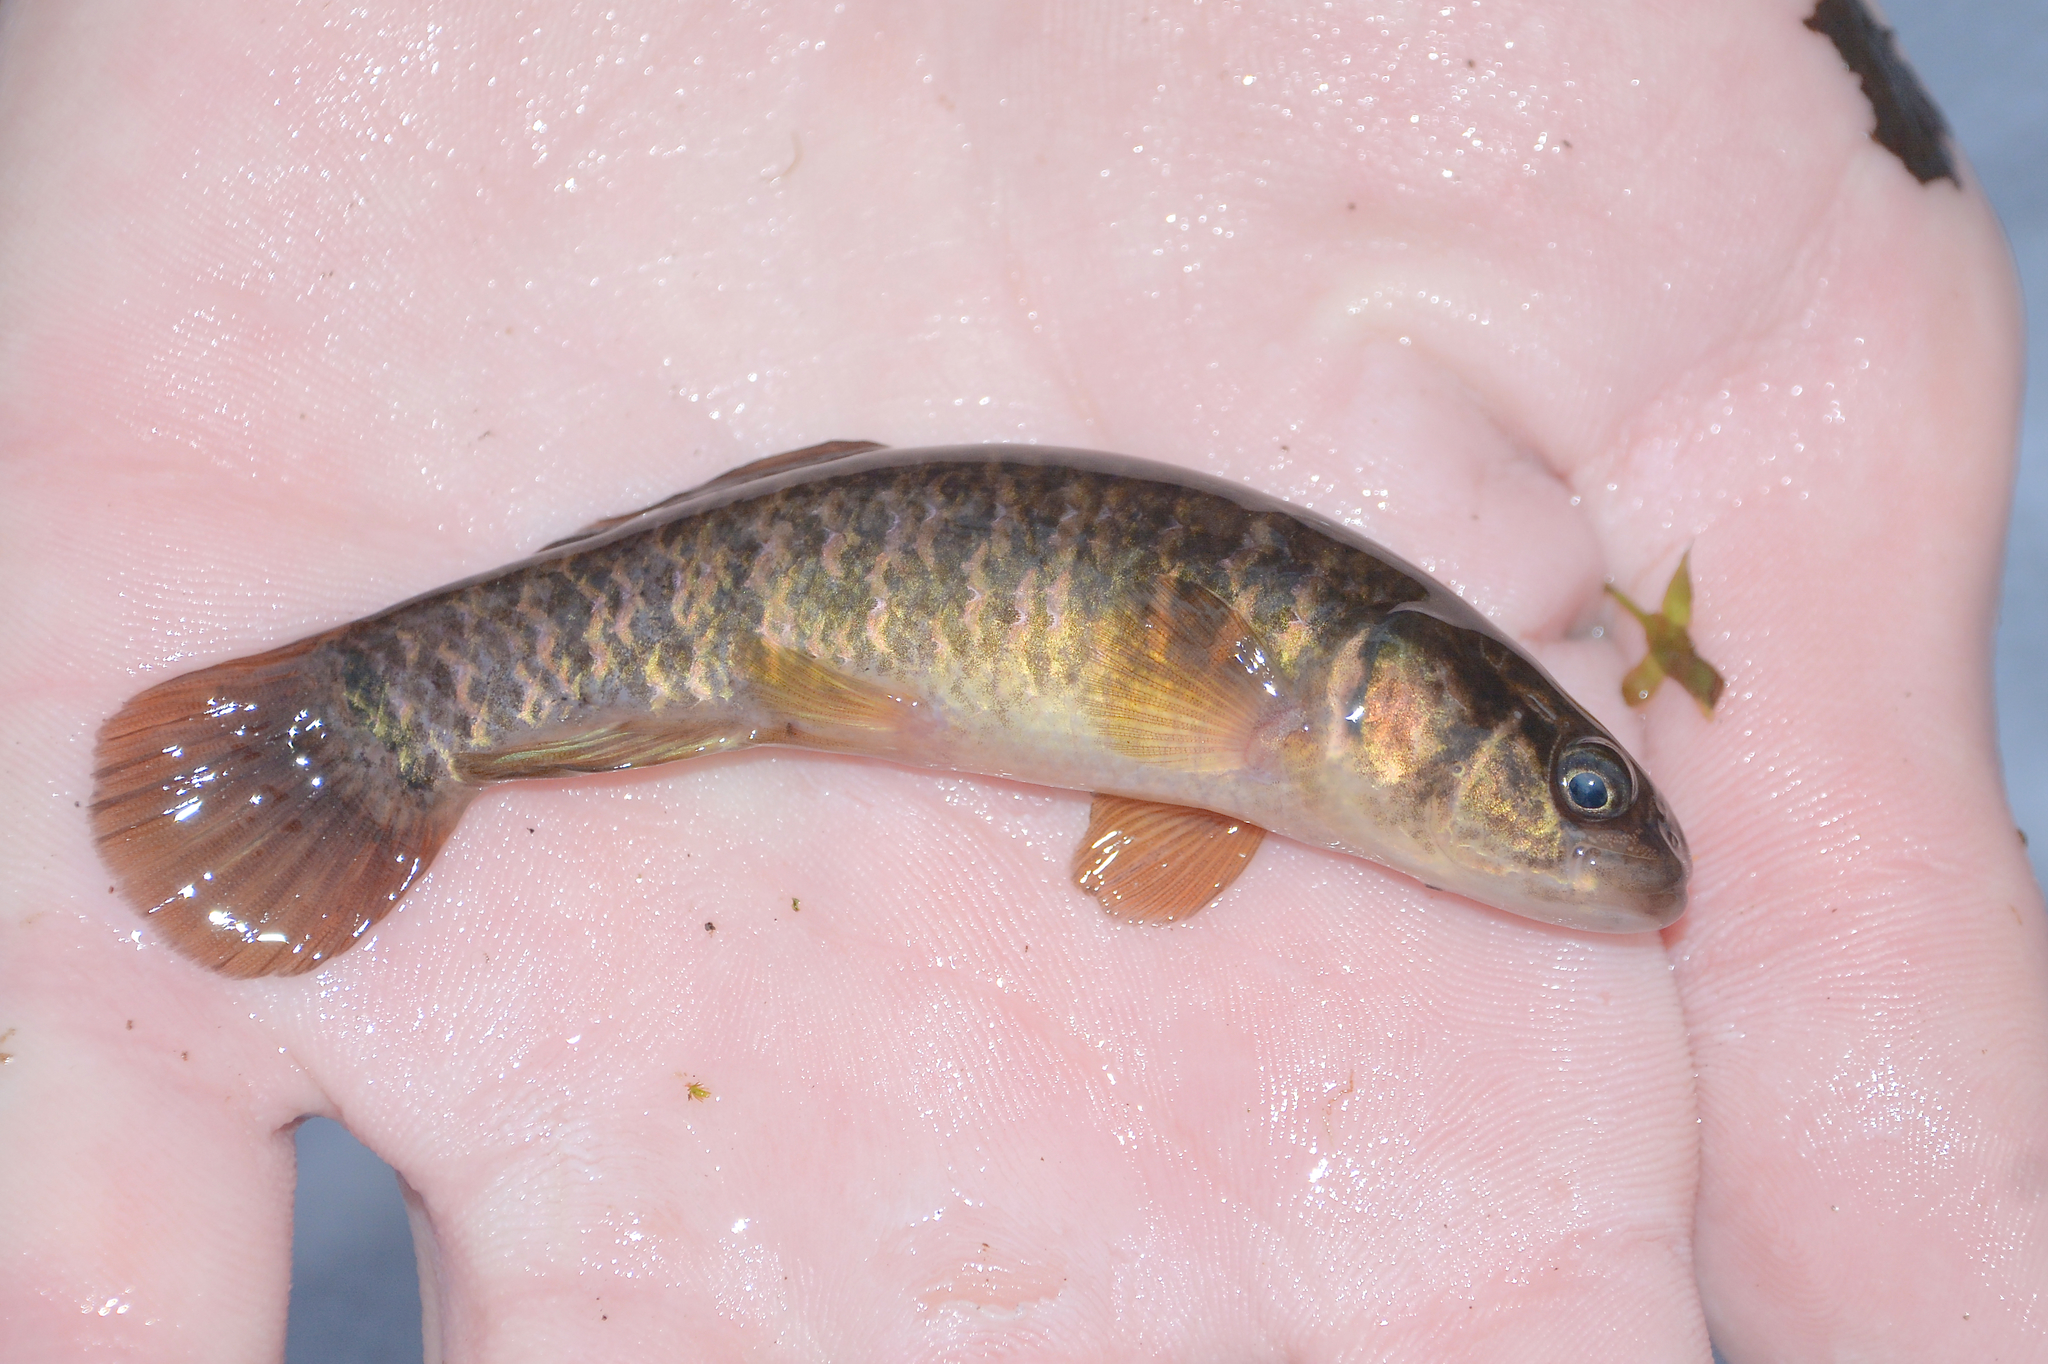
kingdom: Animalia
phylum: Chordata
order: Esociformes
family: Umbridae
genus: Umbra
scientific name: Umbra limi
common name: Central mudminnow
